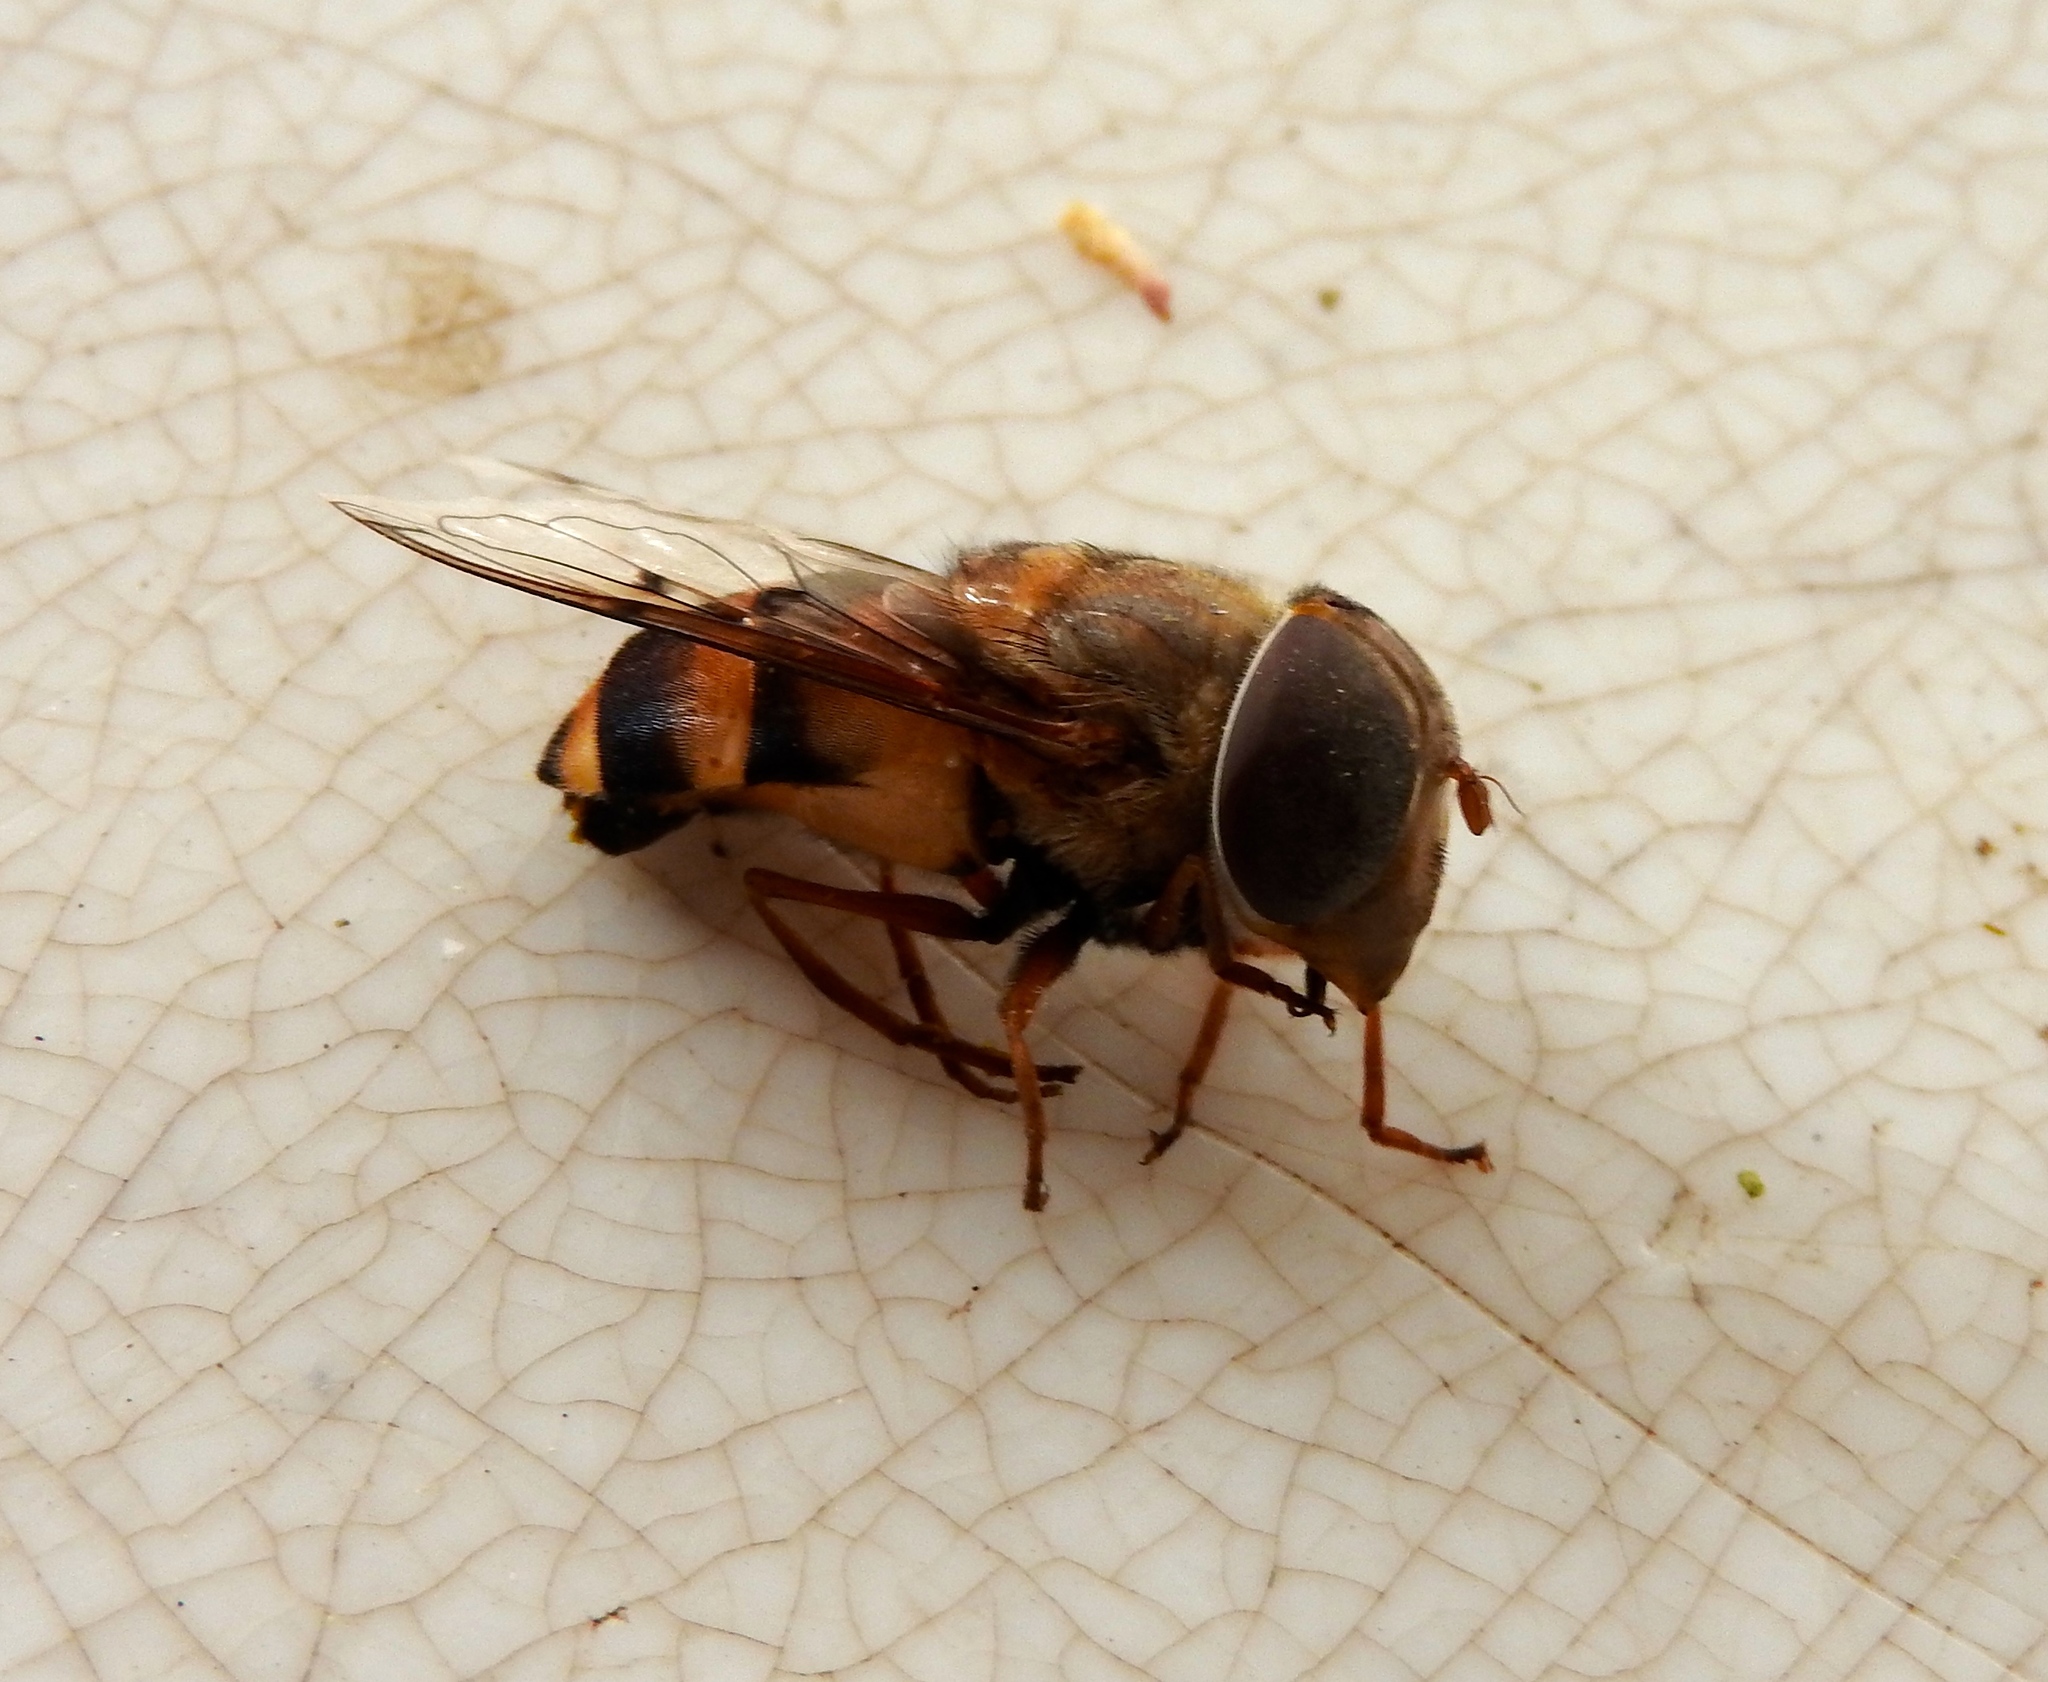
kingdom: Animalia
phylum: Arthropoda
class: Insecta
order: Diptera
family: Syrphidae
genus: Copestylum
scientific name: Copestylum
